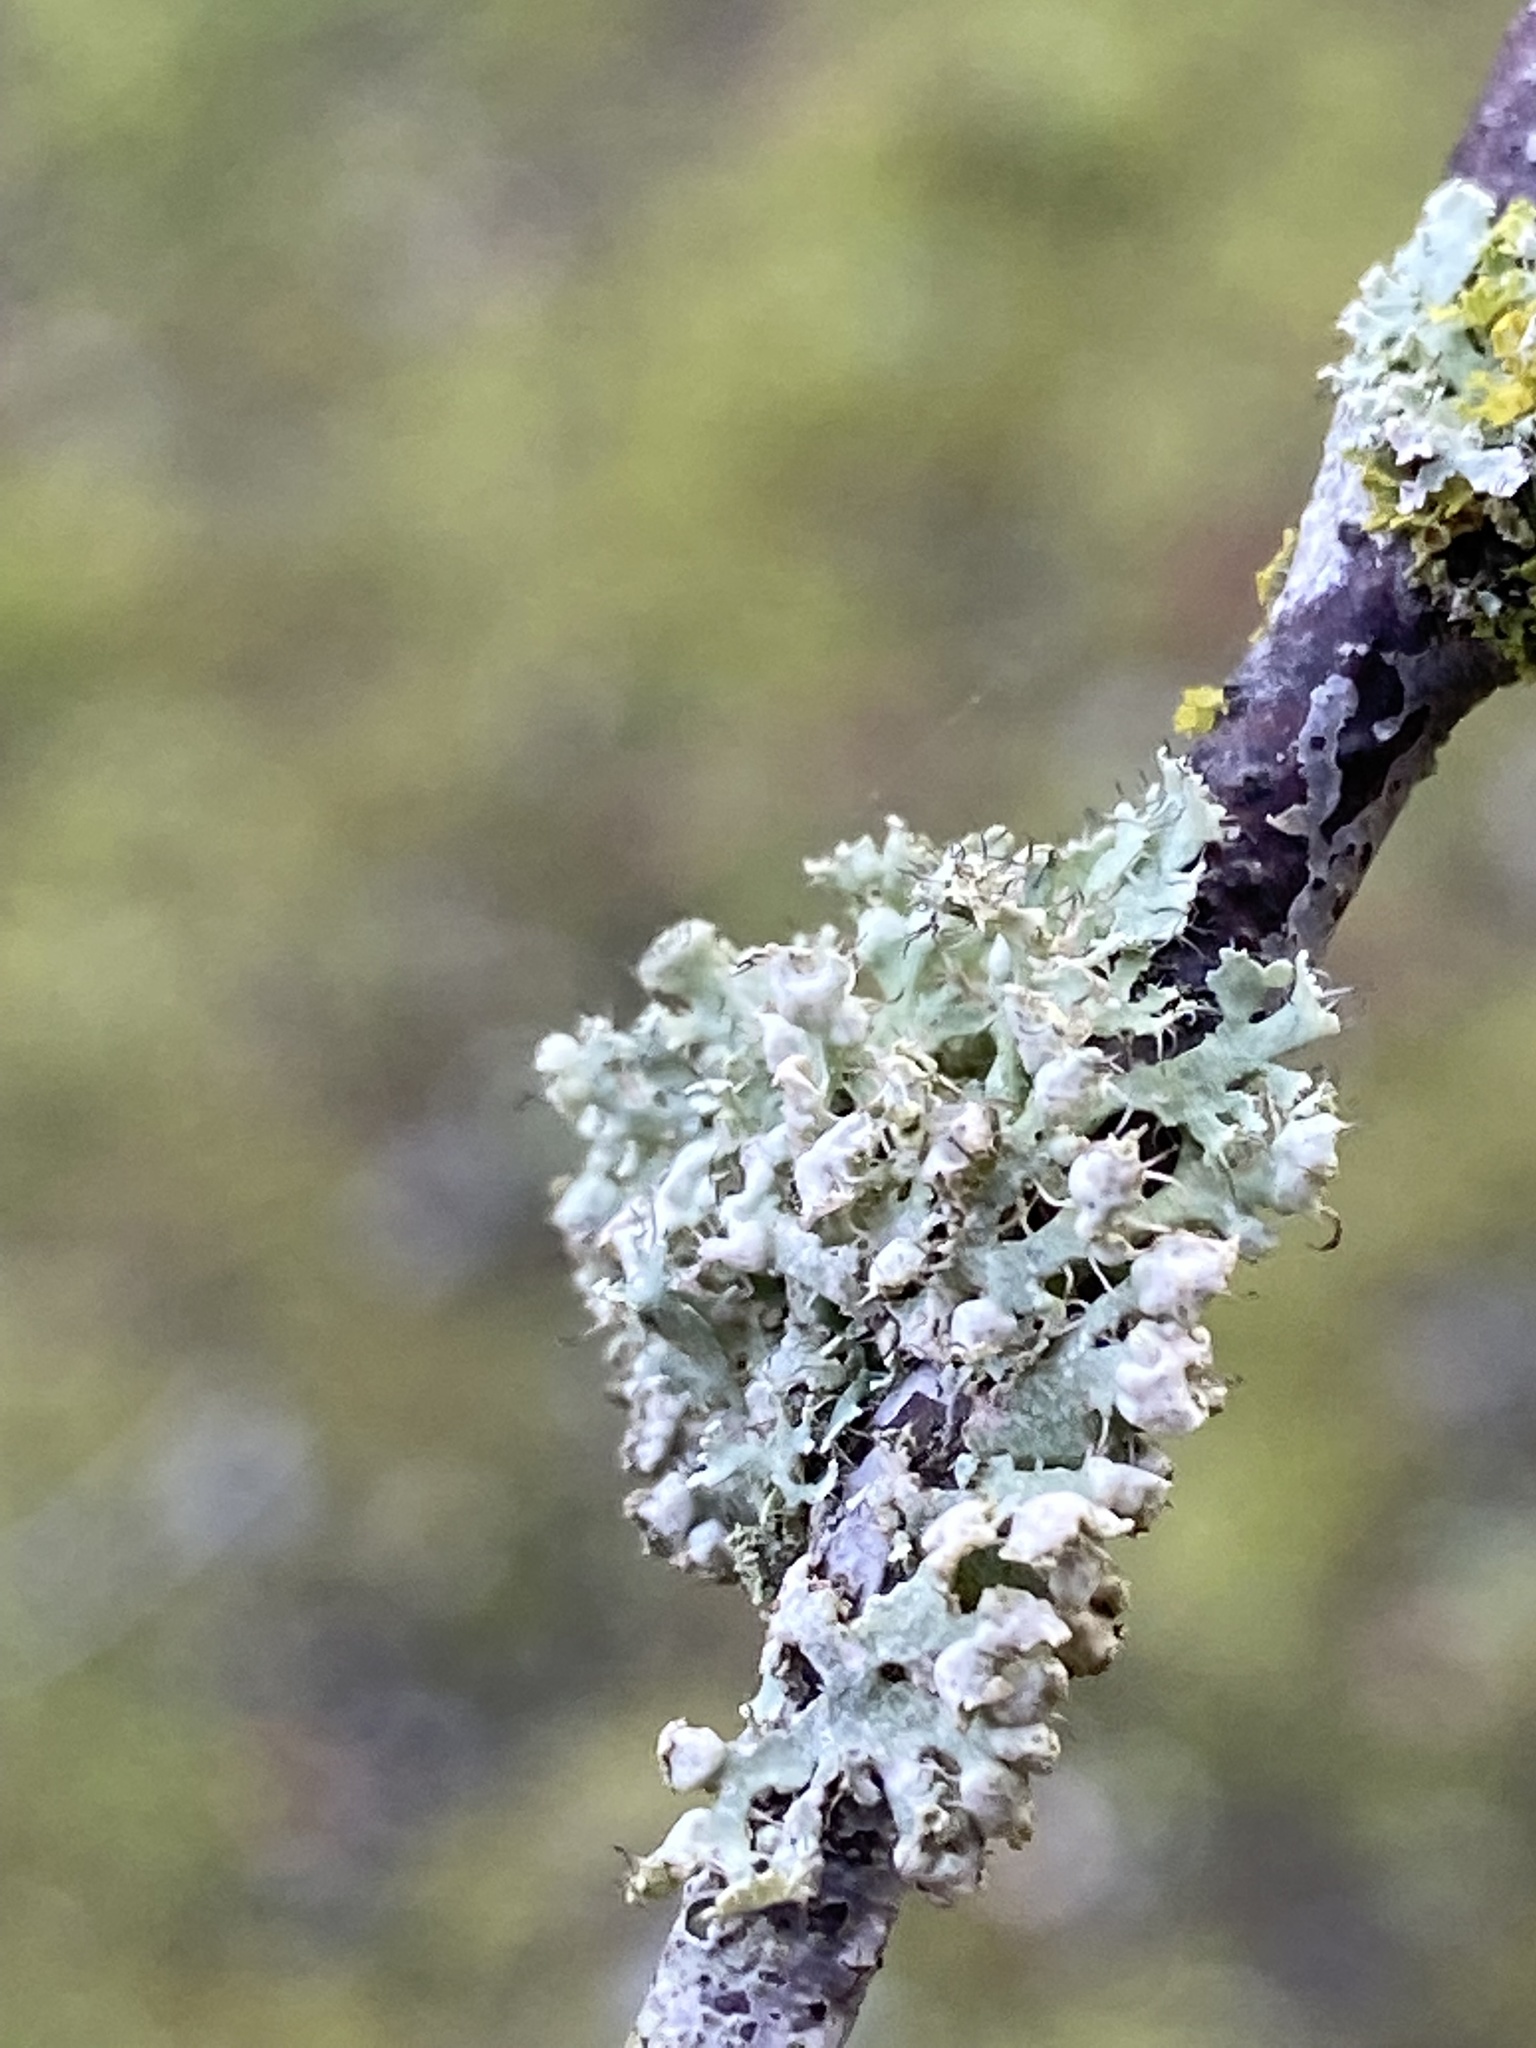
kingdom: Fungi
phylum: Ascomycota
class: Lecanoromycetes
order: Caliciales
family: Physciaceae
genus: Physcia
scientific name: Physcia adscendens
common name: Hooded rosette lichen
